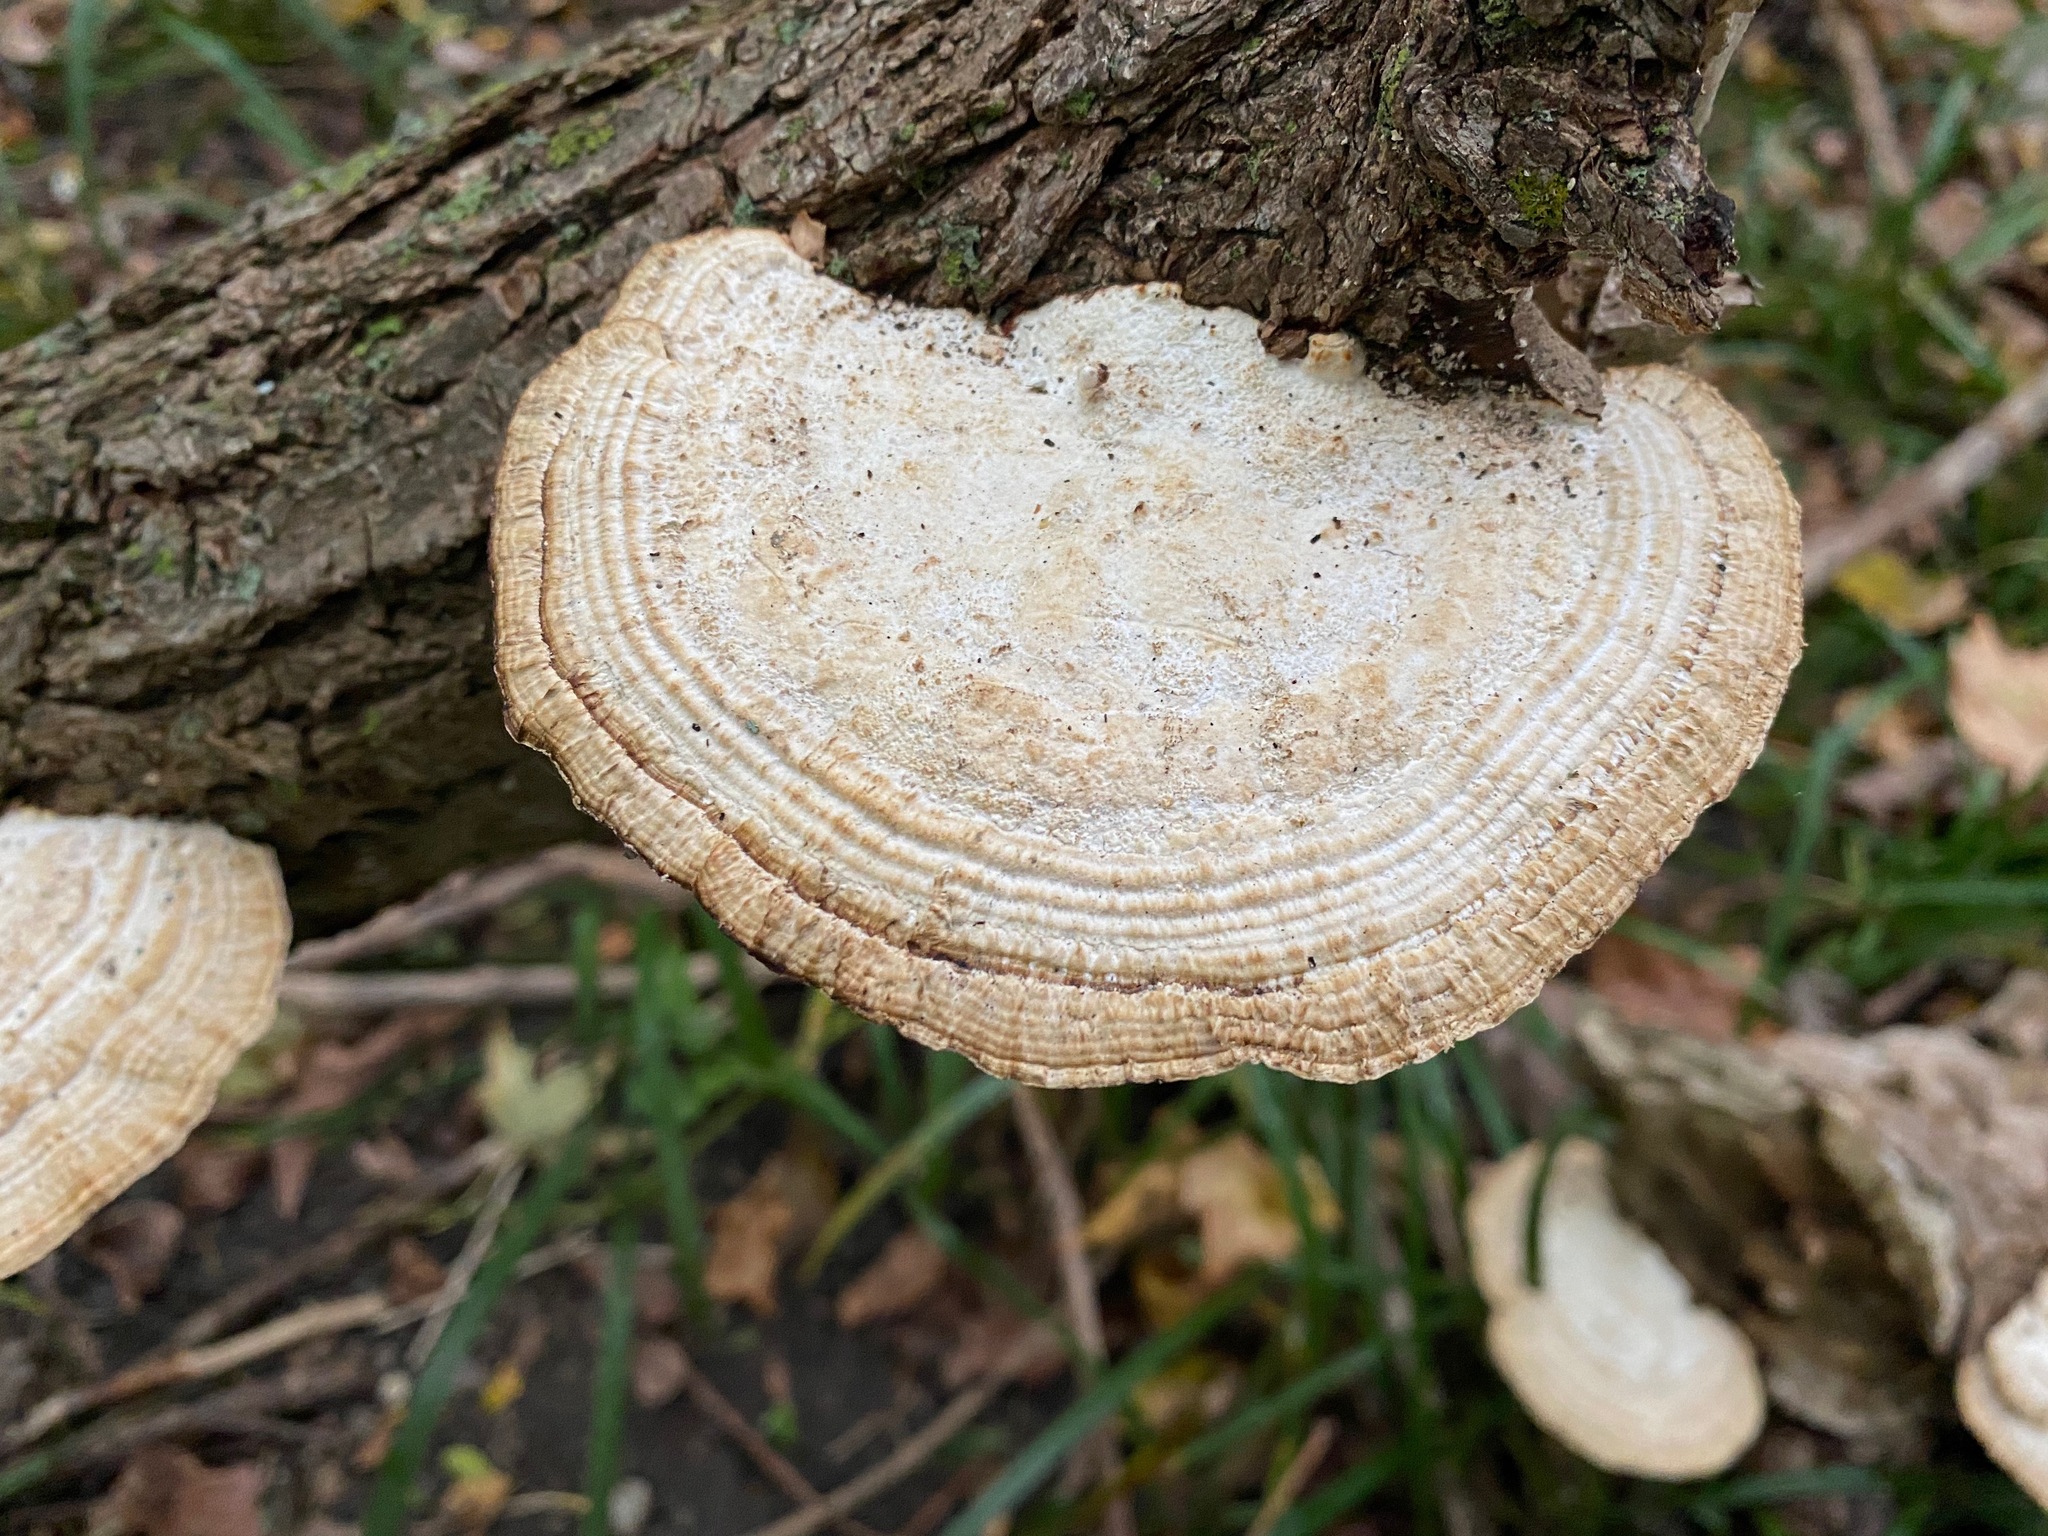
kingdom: Fungi
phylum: Basidiomycota
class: Agaricomycetes
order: Polyporales
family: Polyporaceae
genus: Daedaleopsis
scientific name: Daedaleopsis confragosa
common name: Blushing bracket
